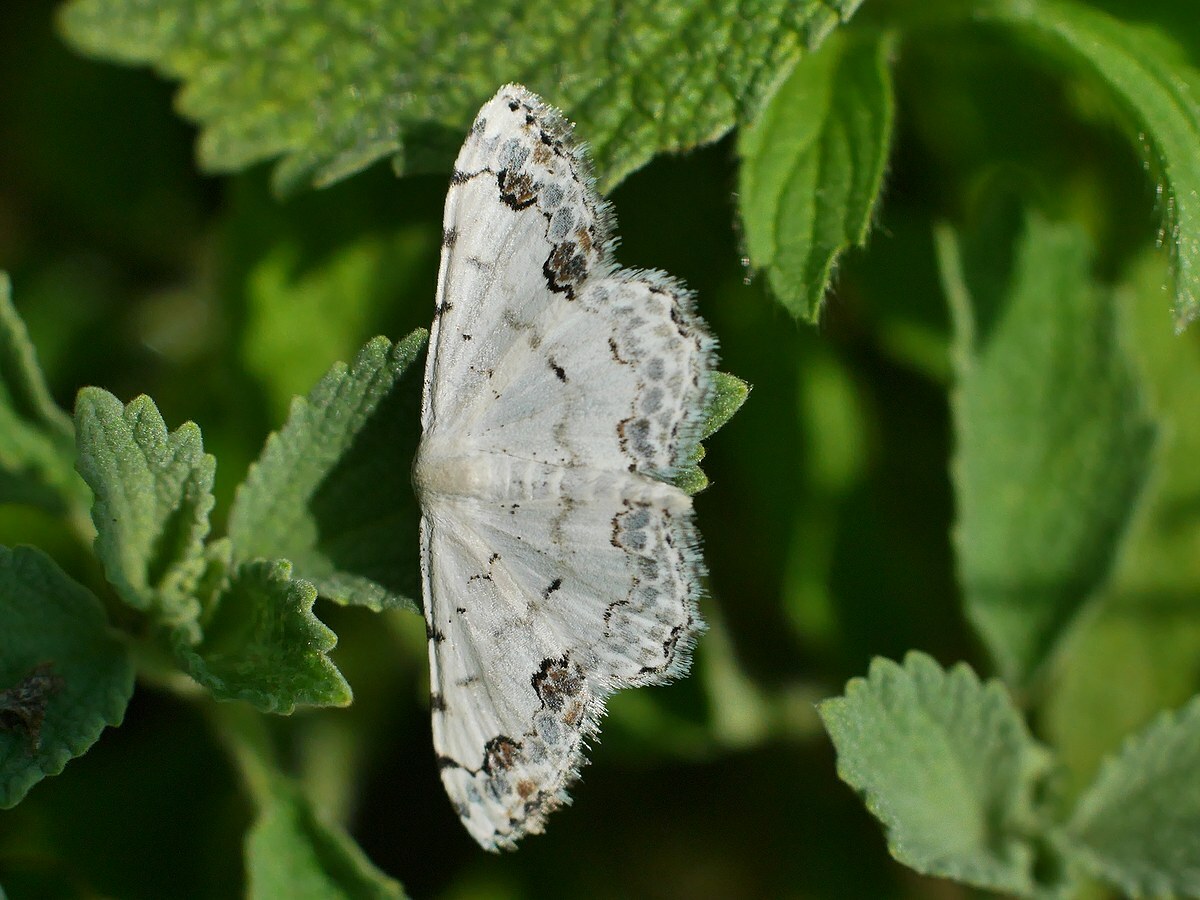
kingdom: Animalia
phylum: Arthropoda
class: Insecta
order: Lepidoptera
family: Geometridae
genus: Scopula
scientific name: Scopula decorata
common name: Middle lace border
